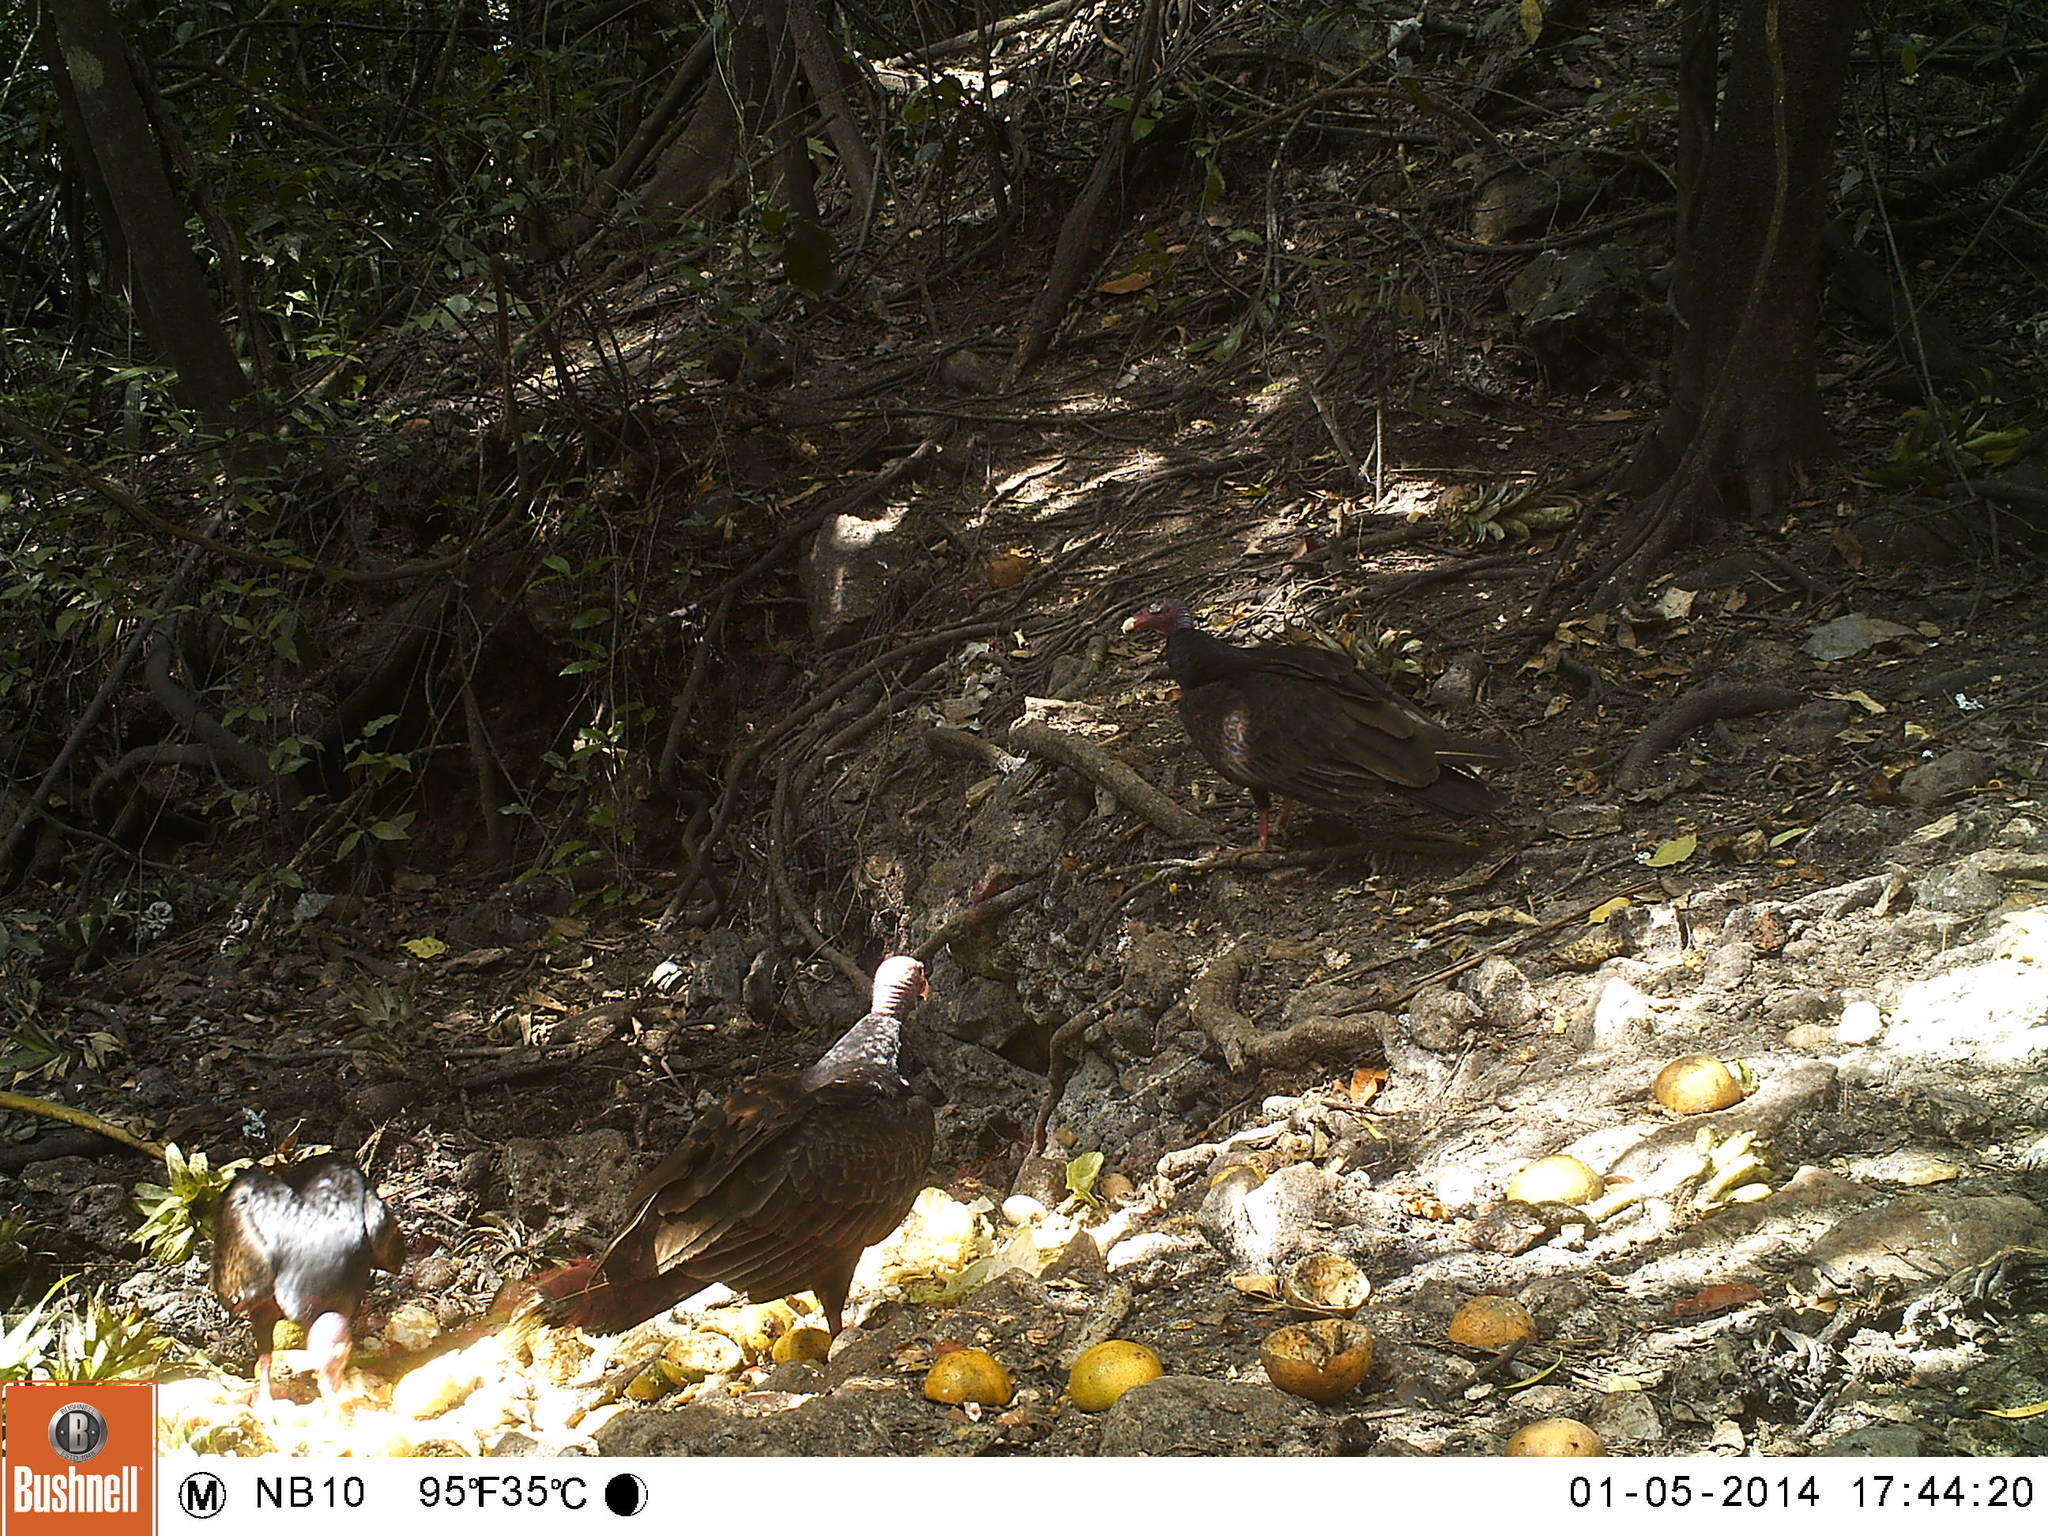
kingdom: Animalia
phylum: Chordata
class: Aves
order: Accipitriformes
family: Cathartidae
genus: Cathartes
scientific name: Cathartes aura
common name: Turkey vulture
